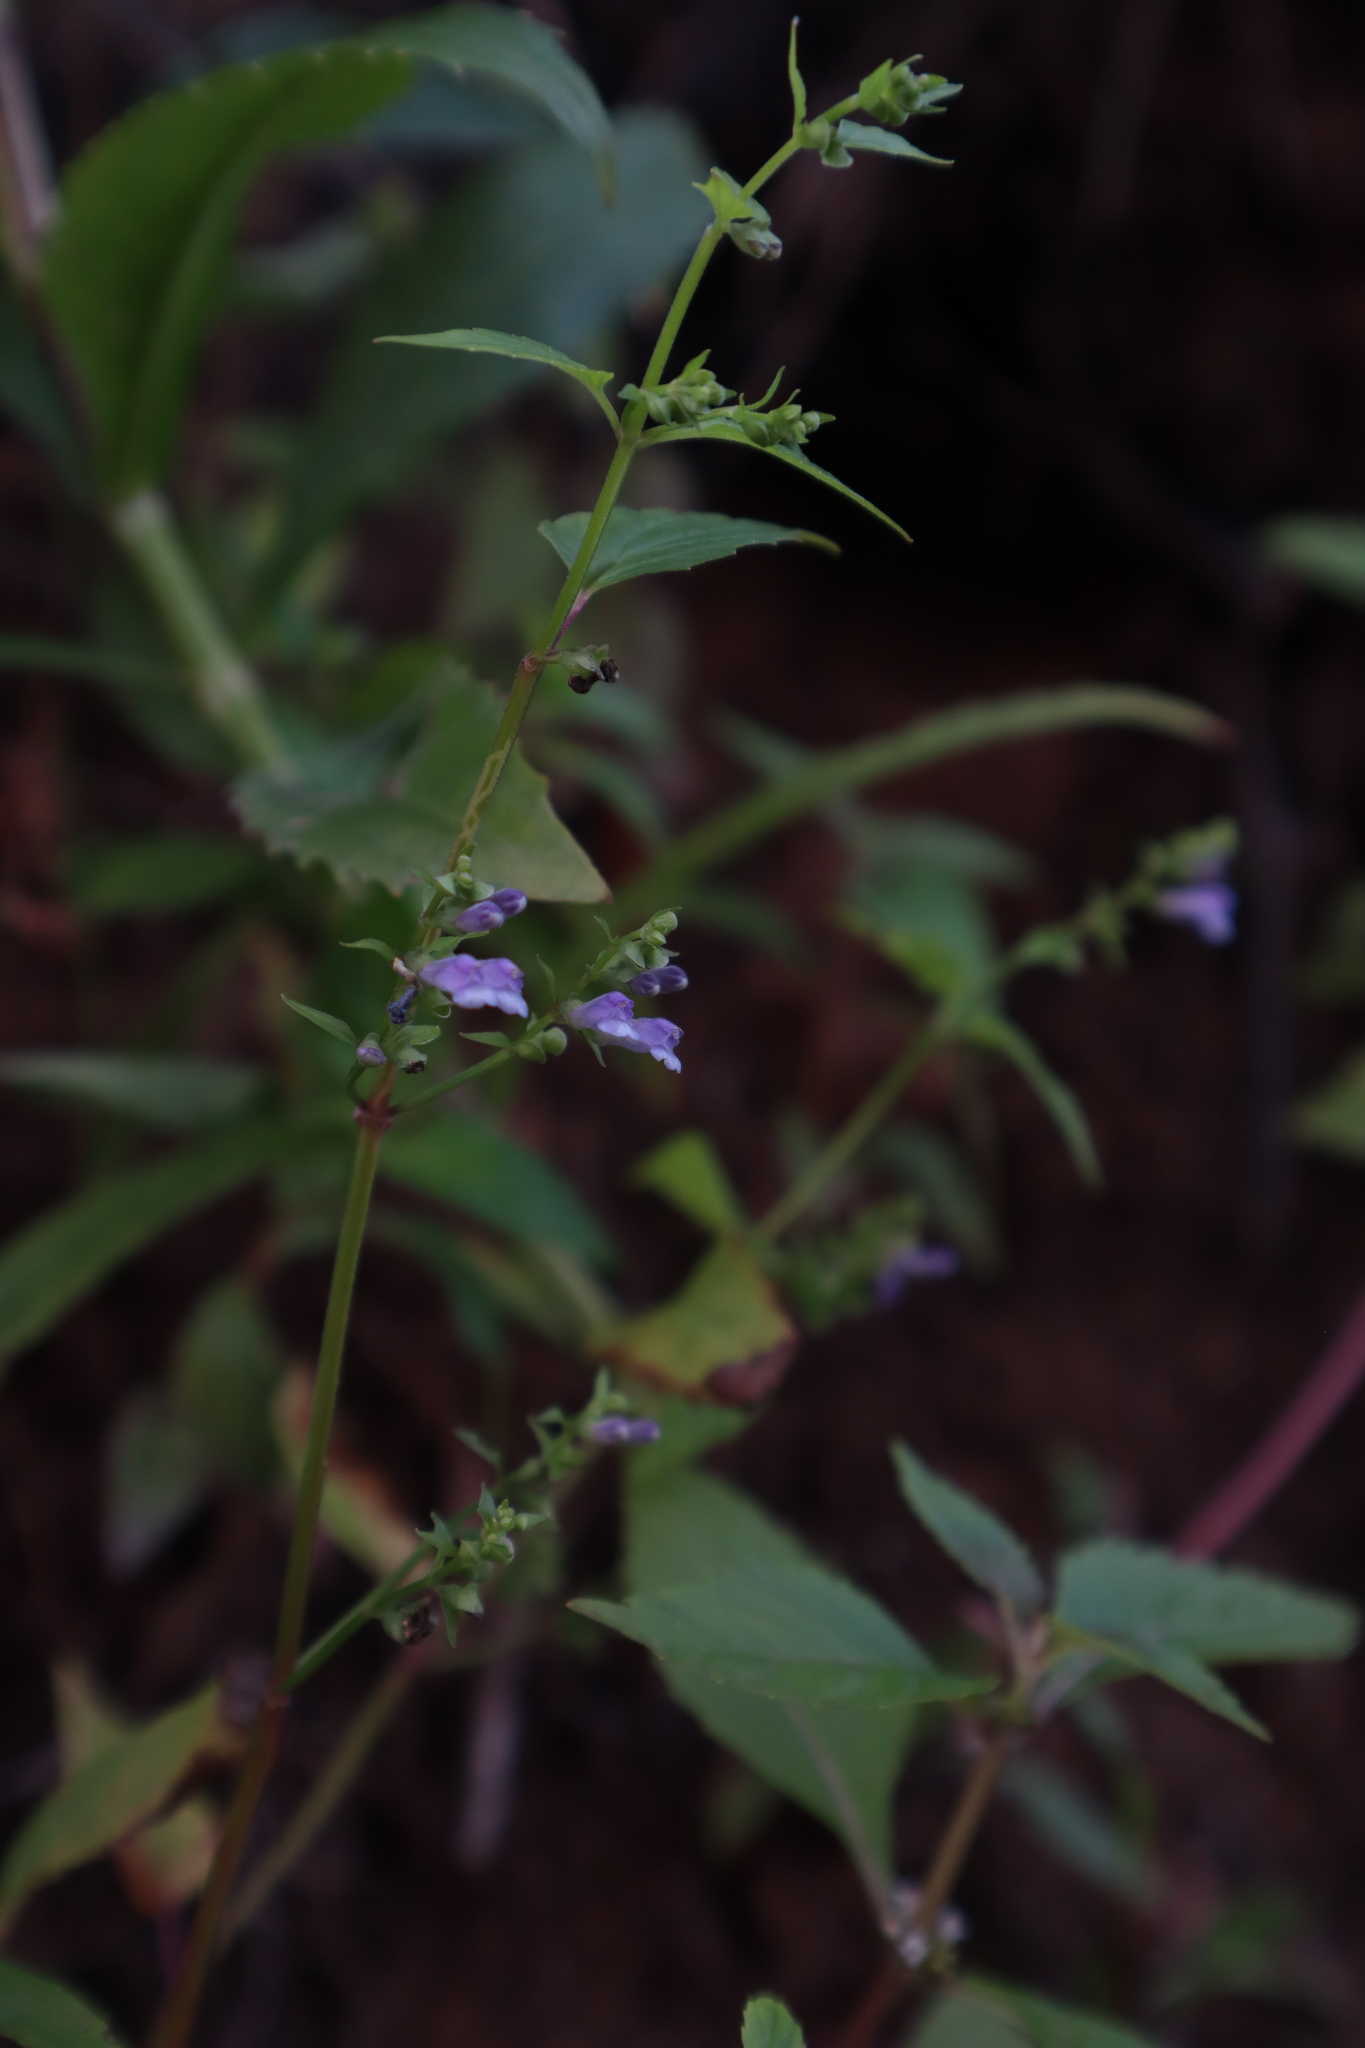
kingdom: Plantae
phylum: Tracheophyta
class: Magnoliopsida
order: Lamiales
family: Lamiaceae
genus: Physostegia
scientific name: Physostegia virginiana
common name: Obedient-plant
